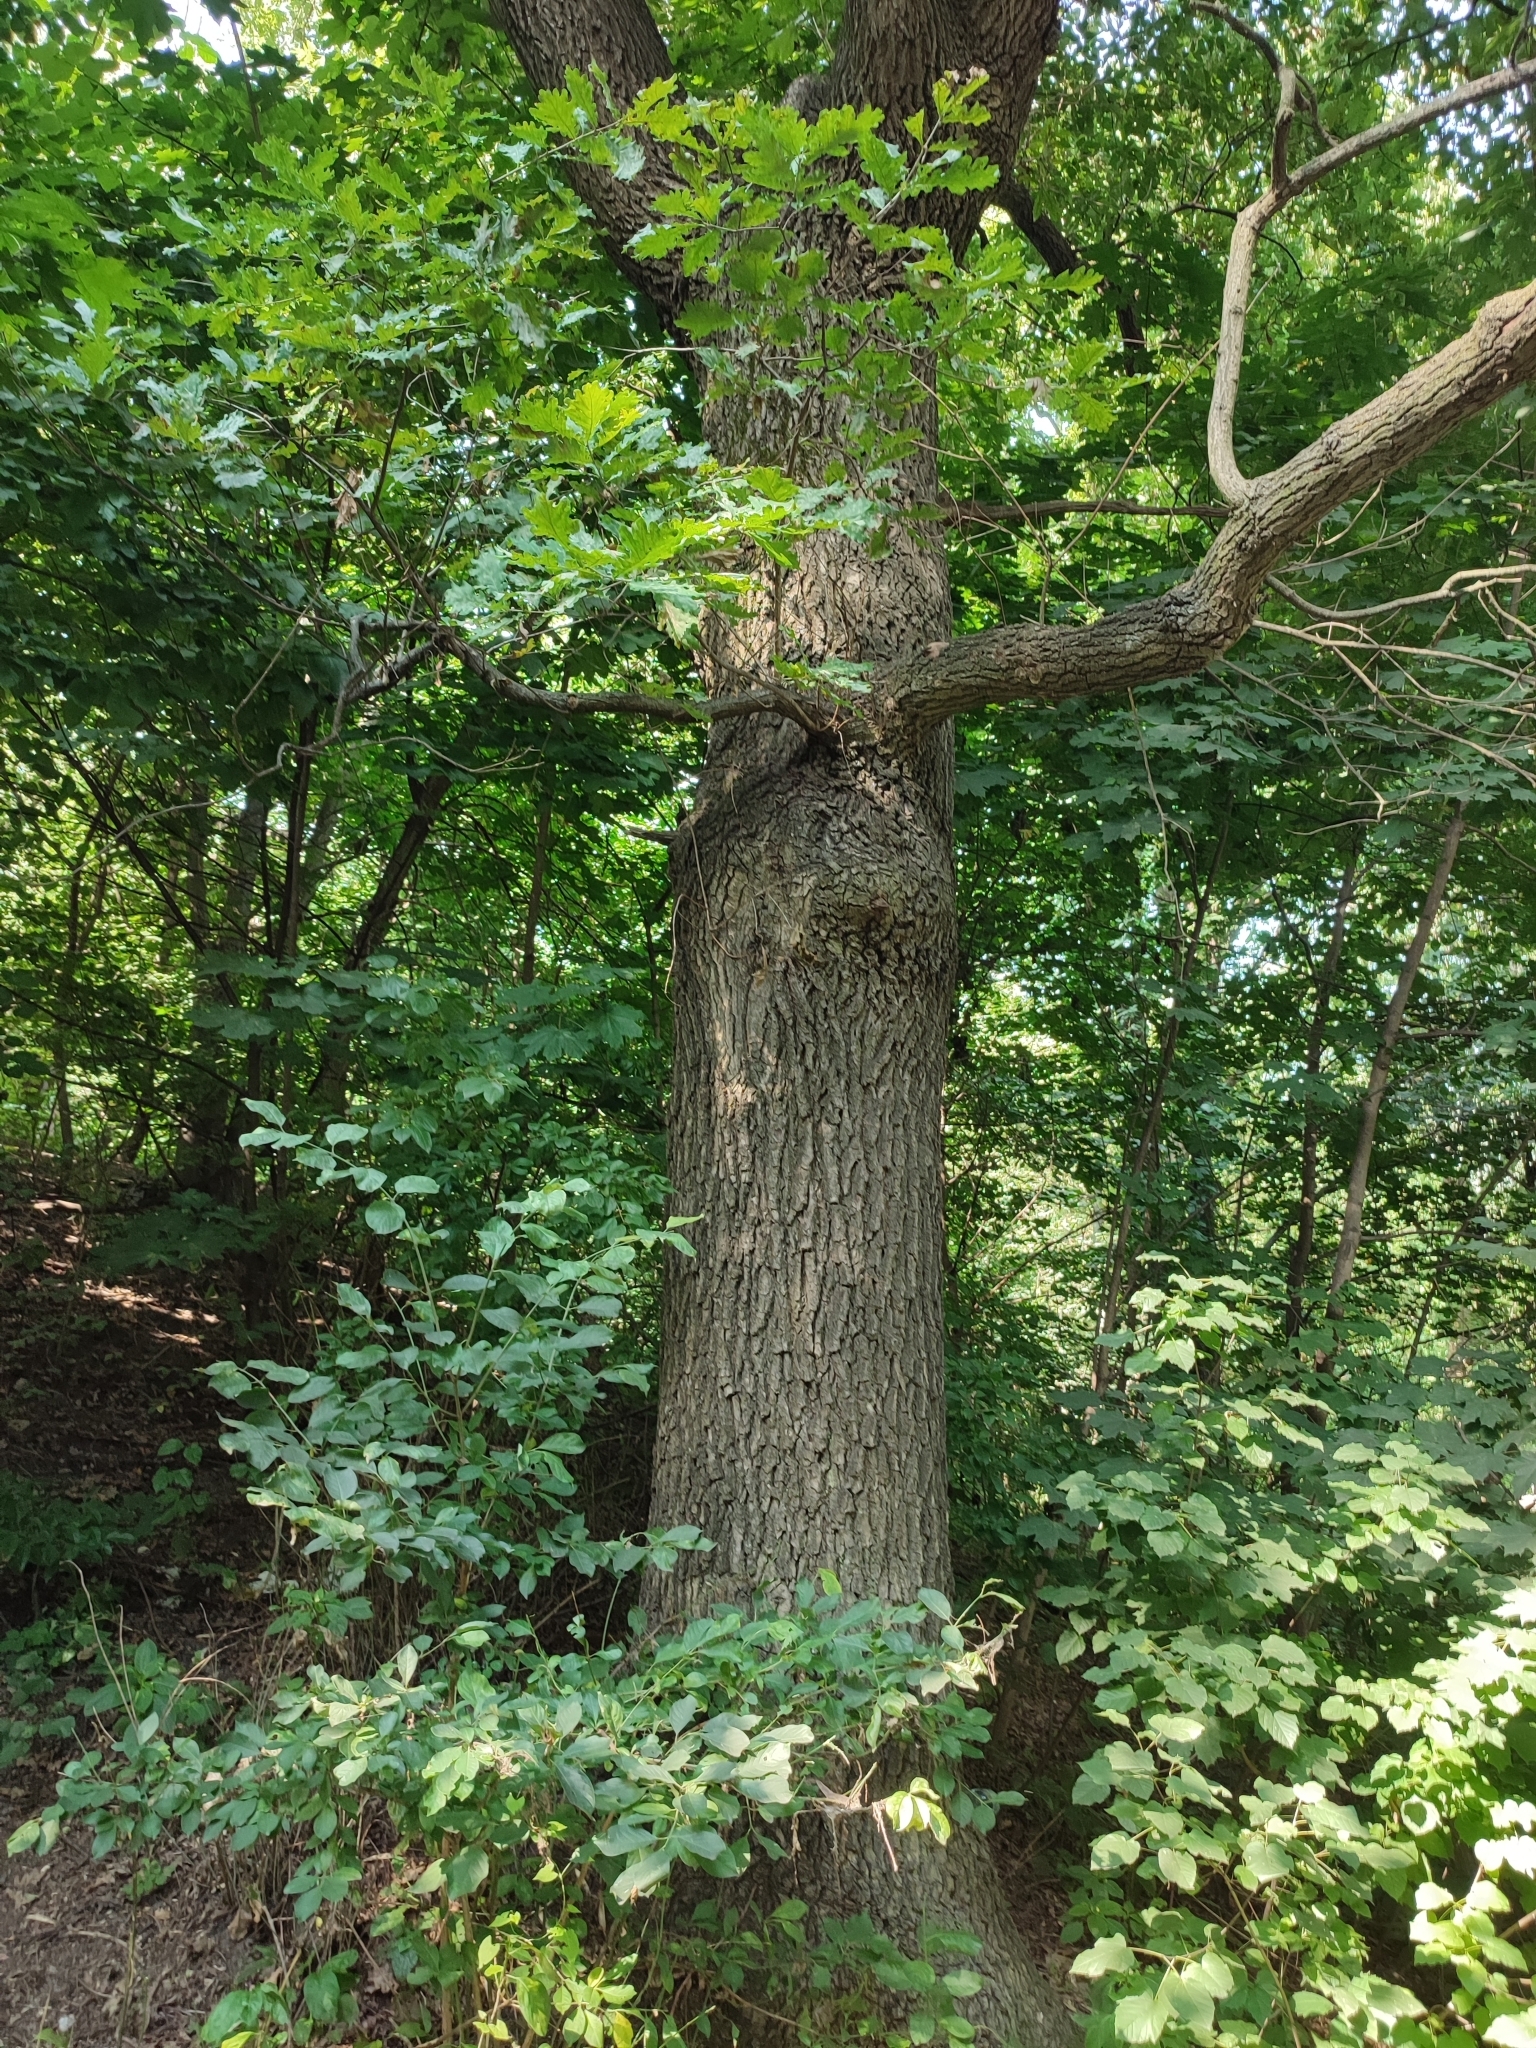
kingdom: Plantae
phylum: Tracheophyta
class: Magnoliopsida
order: Fagales
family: Fagaceae
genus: Quercus
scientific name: Quercus robur
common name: Pedunculate oak
